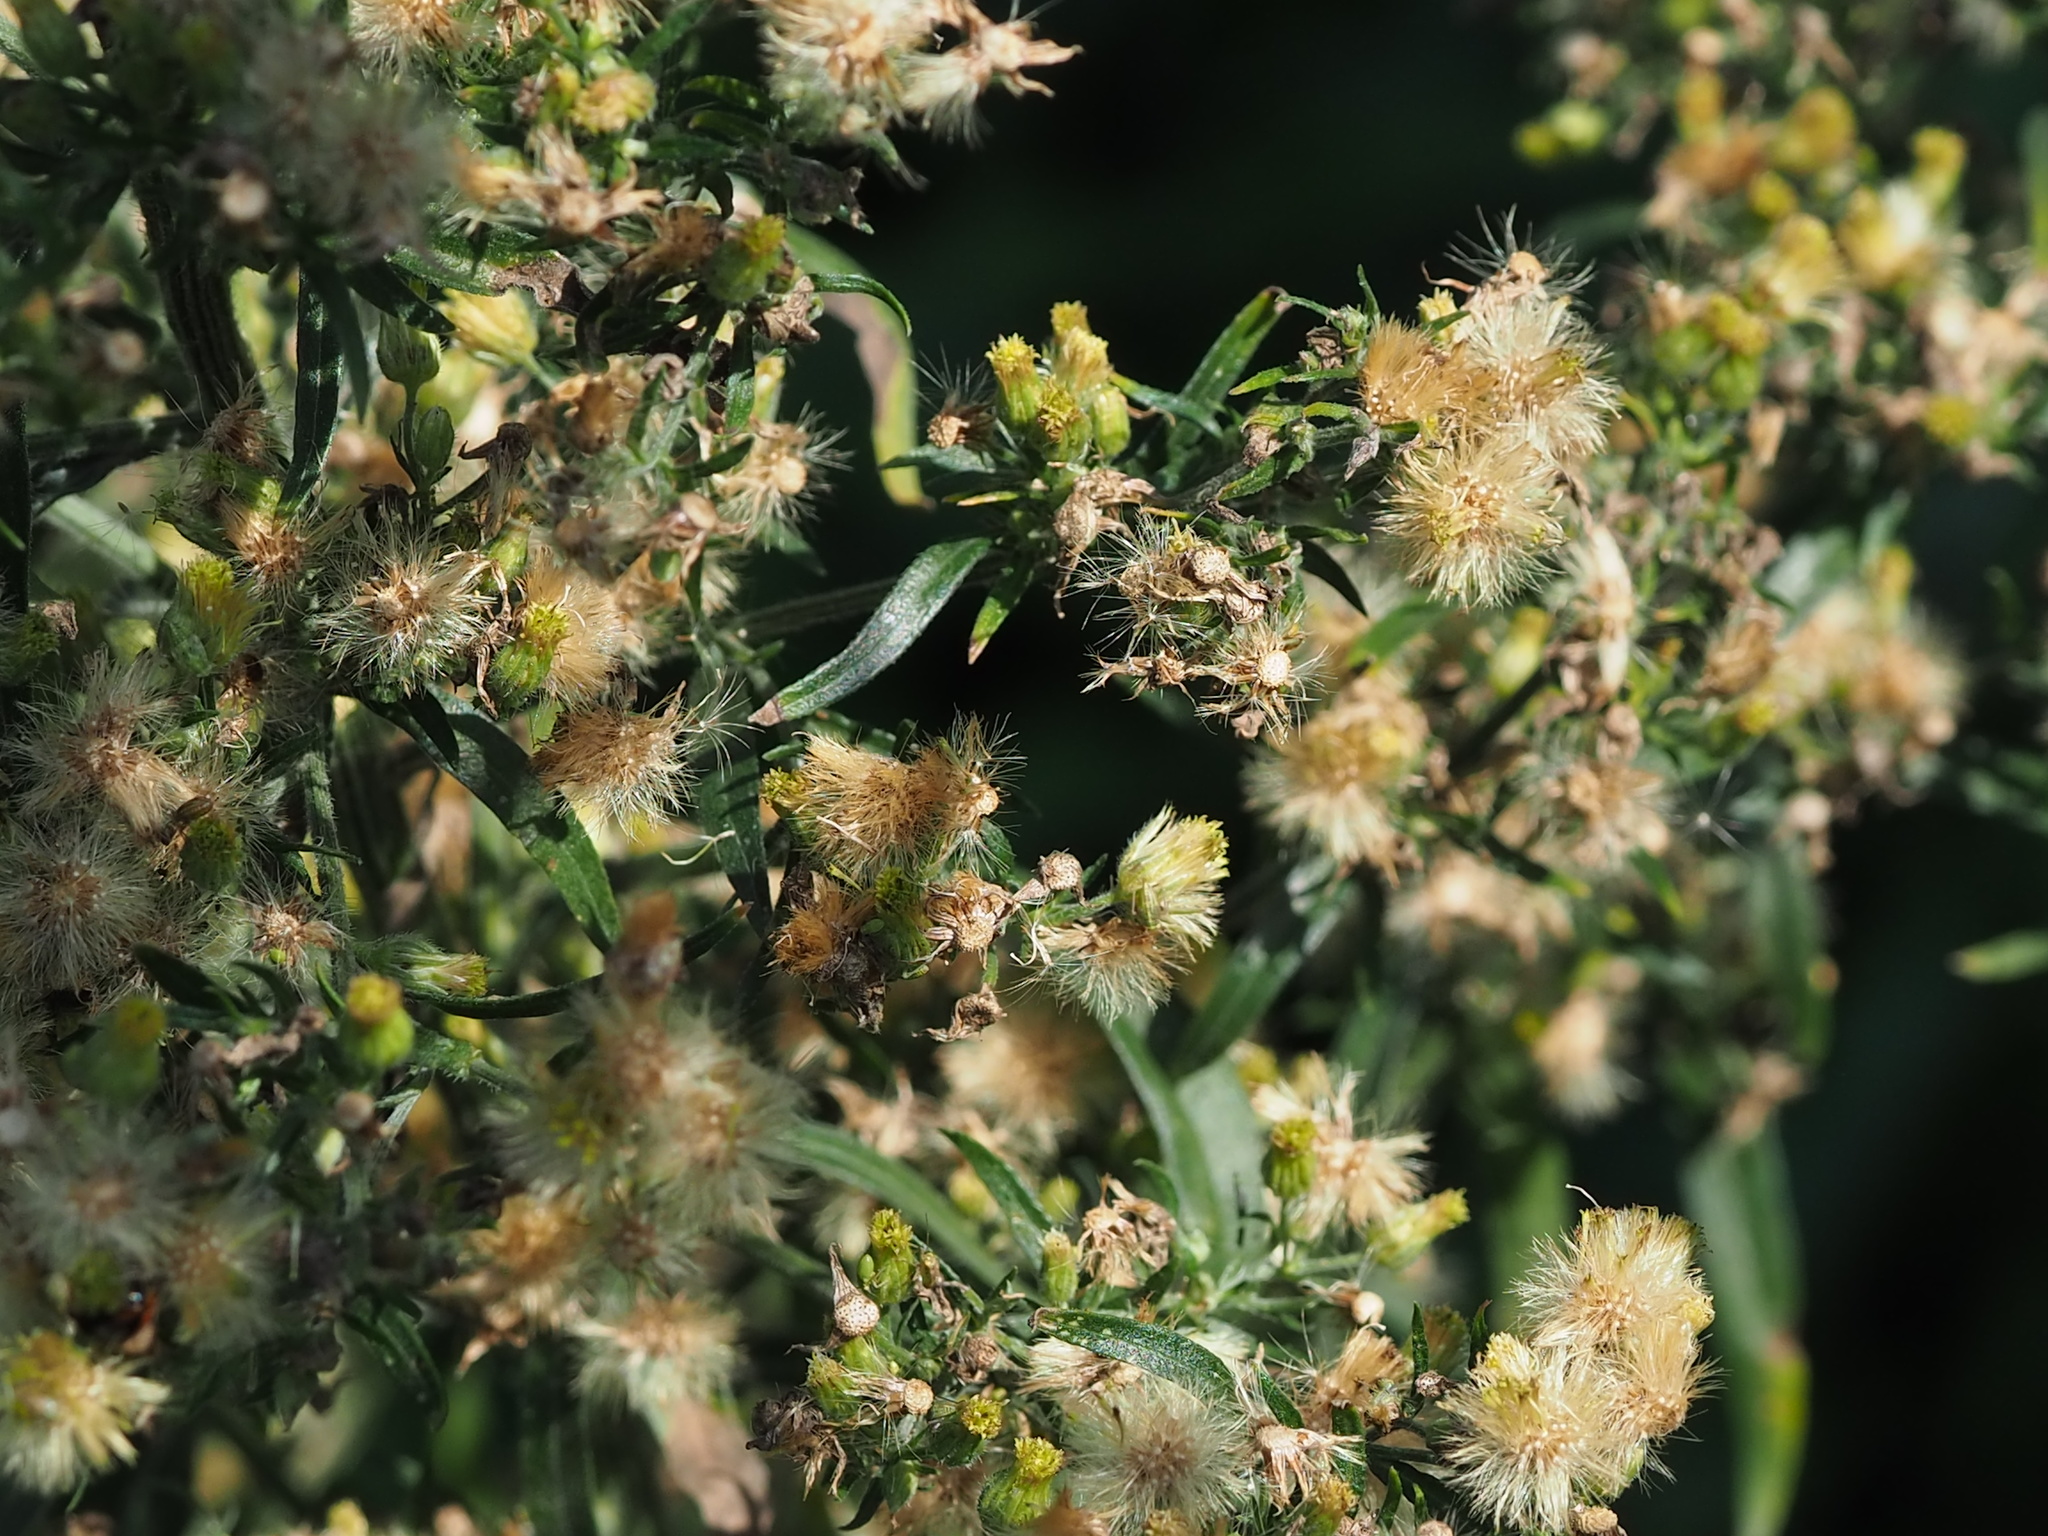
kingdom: Plantae
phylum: Tracheophyta
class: Magnoliopsida
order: Asterales
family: Asteraceae
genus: Erigeron
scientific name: Erigeron sumatrensis
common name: Daisy
